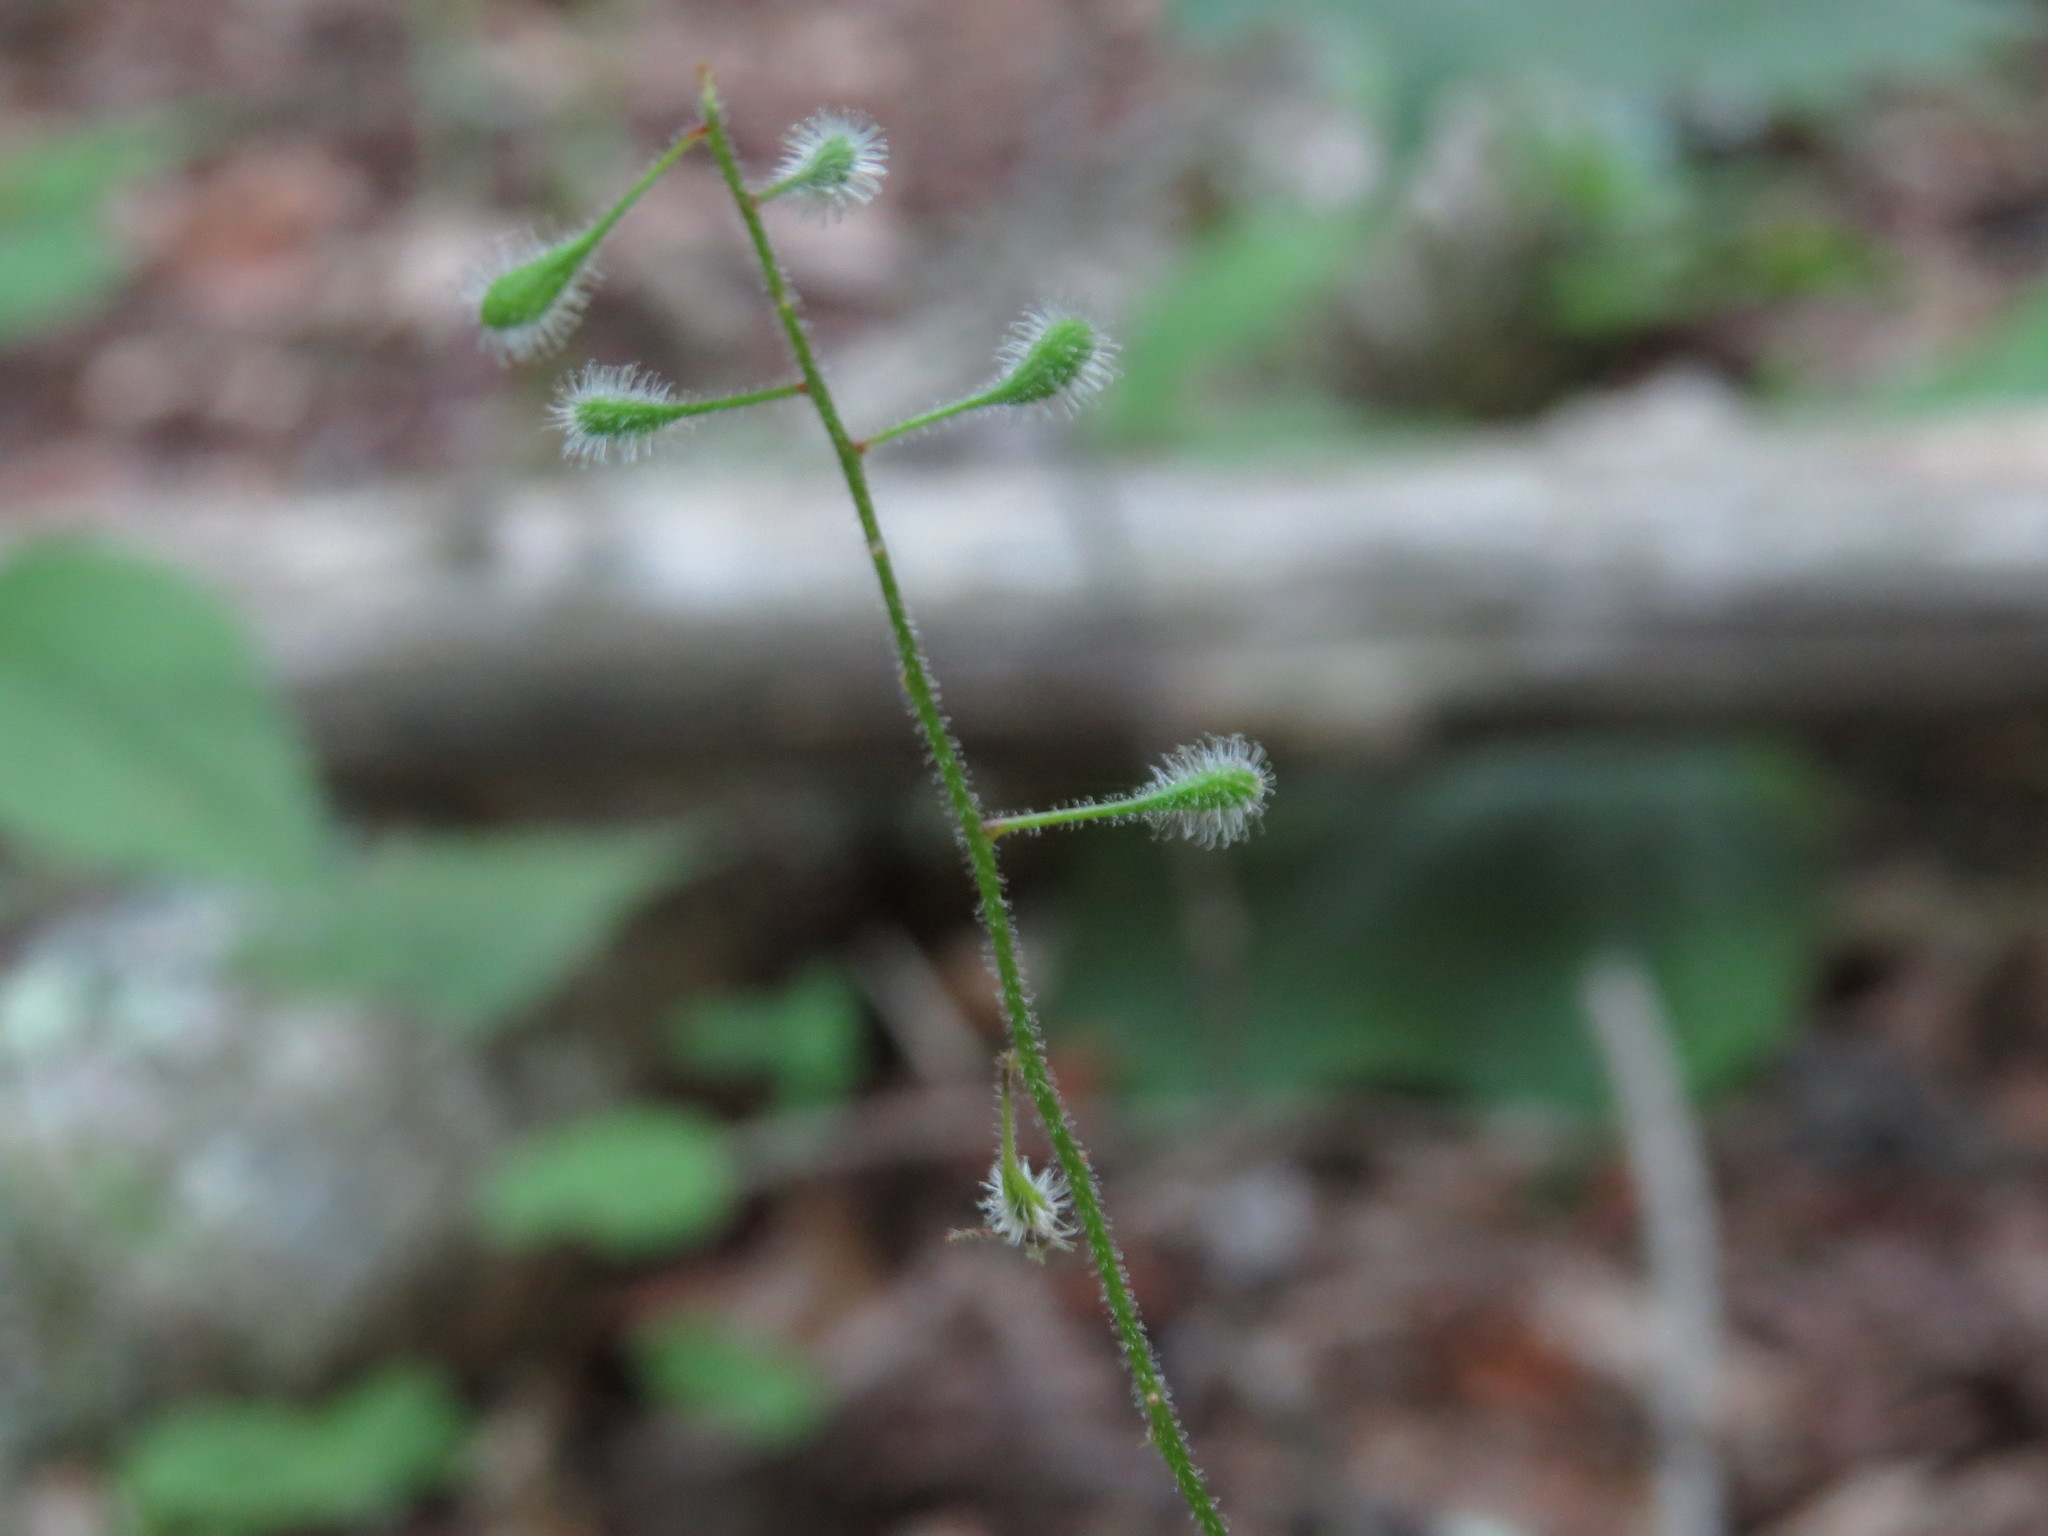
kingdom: Plantae
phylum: Tracheophyta
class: Magnoliopsida
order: Myrtales
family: Onagraceae
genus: Circaea
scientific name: Circaea canadensis
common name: Broad-leaved enchanter's nightshade
